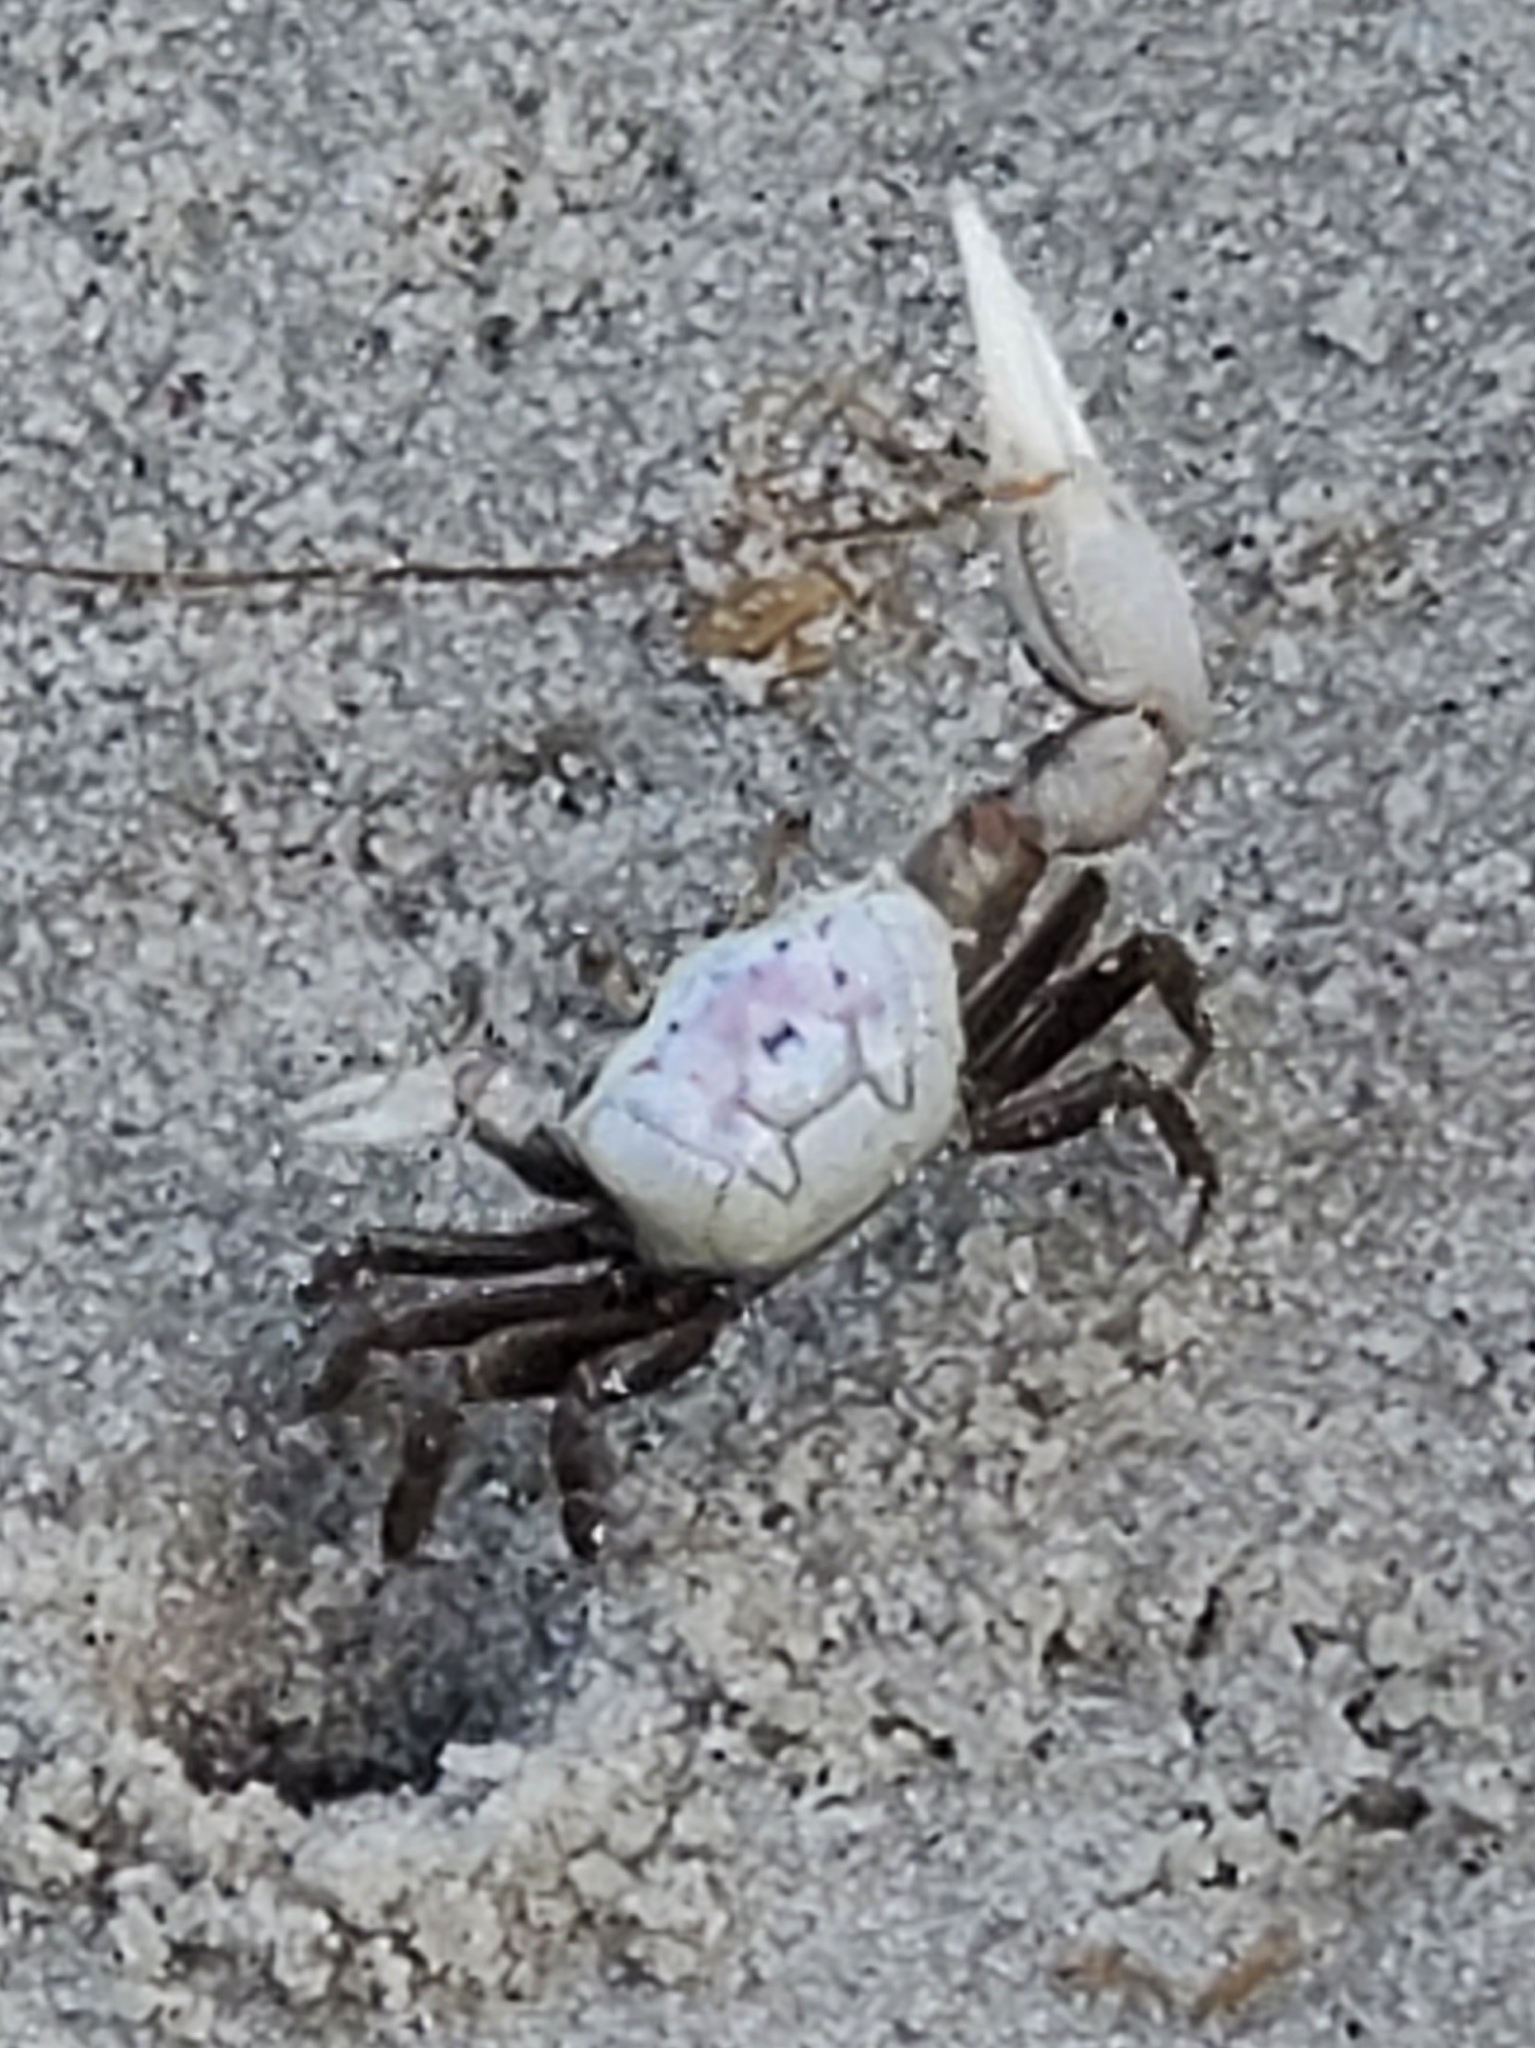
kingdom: Animalia
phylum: Arthropoda
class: Malacostraca
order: Decapoda
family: Ocypodidae
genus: Leptuca
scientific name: Leptuca pugilator
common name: Atlantic sand fiddler crab
